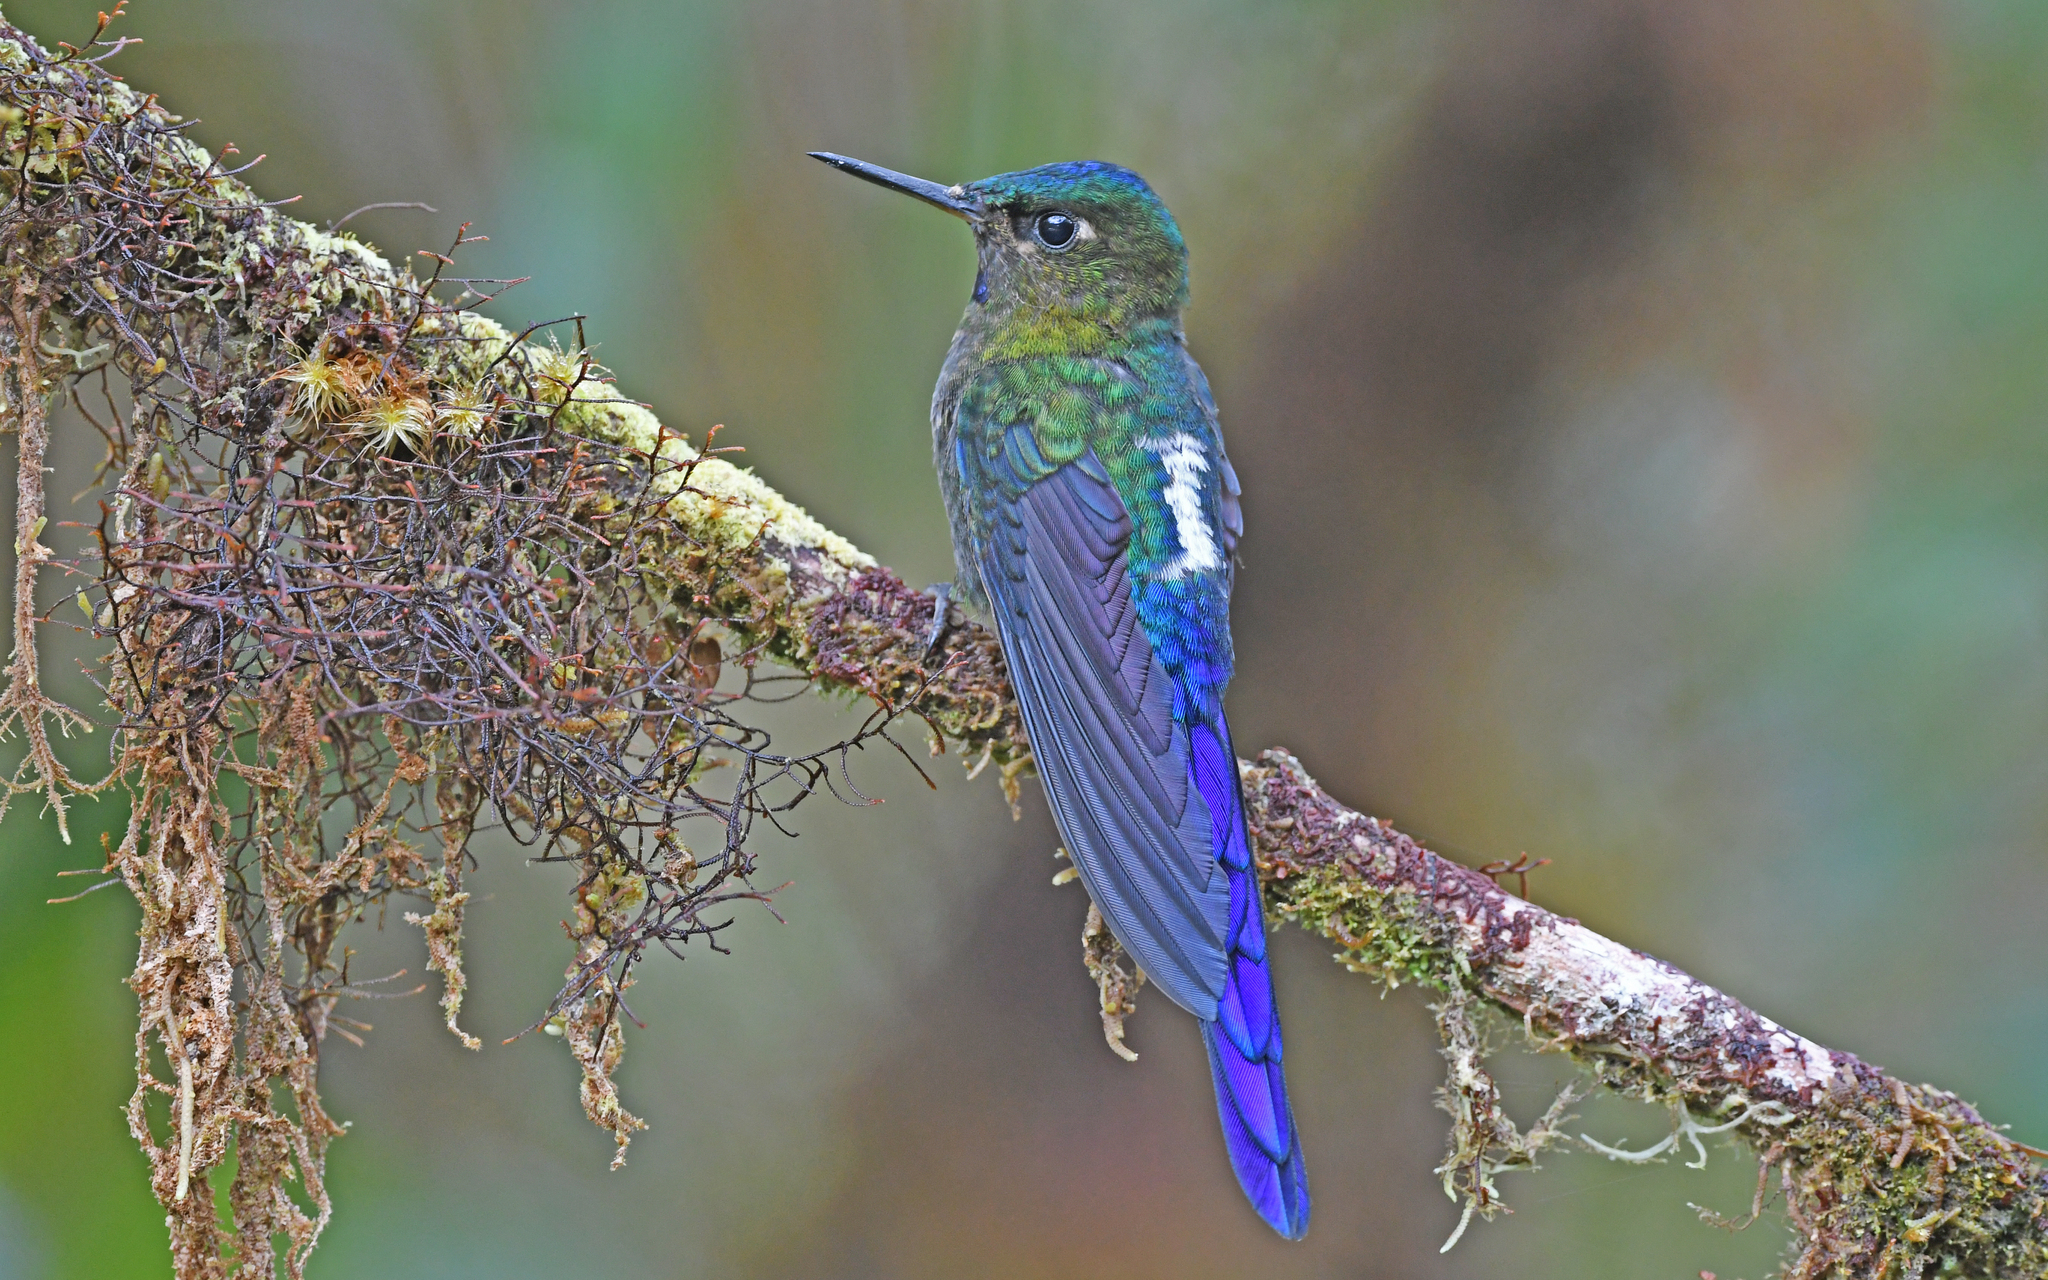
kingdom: Animalia
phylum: Chordata
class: Aves
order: Apodiformes
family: Trochilidae
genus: Aglaiocercus
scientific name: Aglaiocercus coelestis
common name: Violet-tailed sylph
